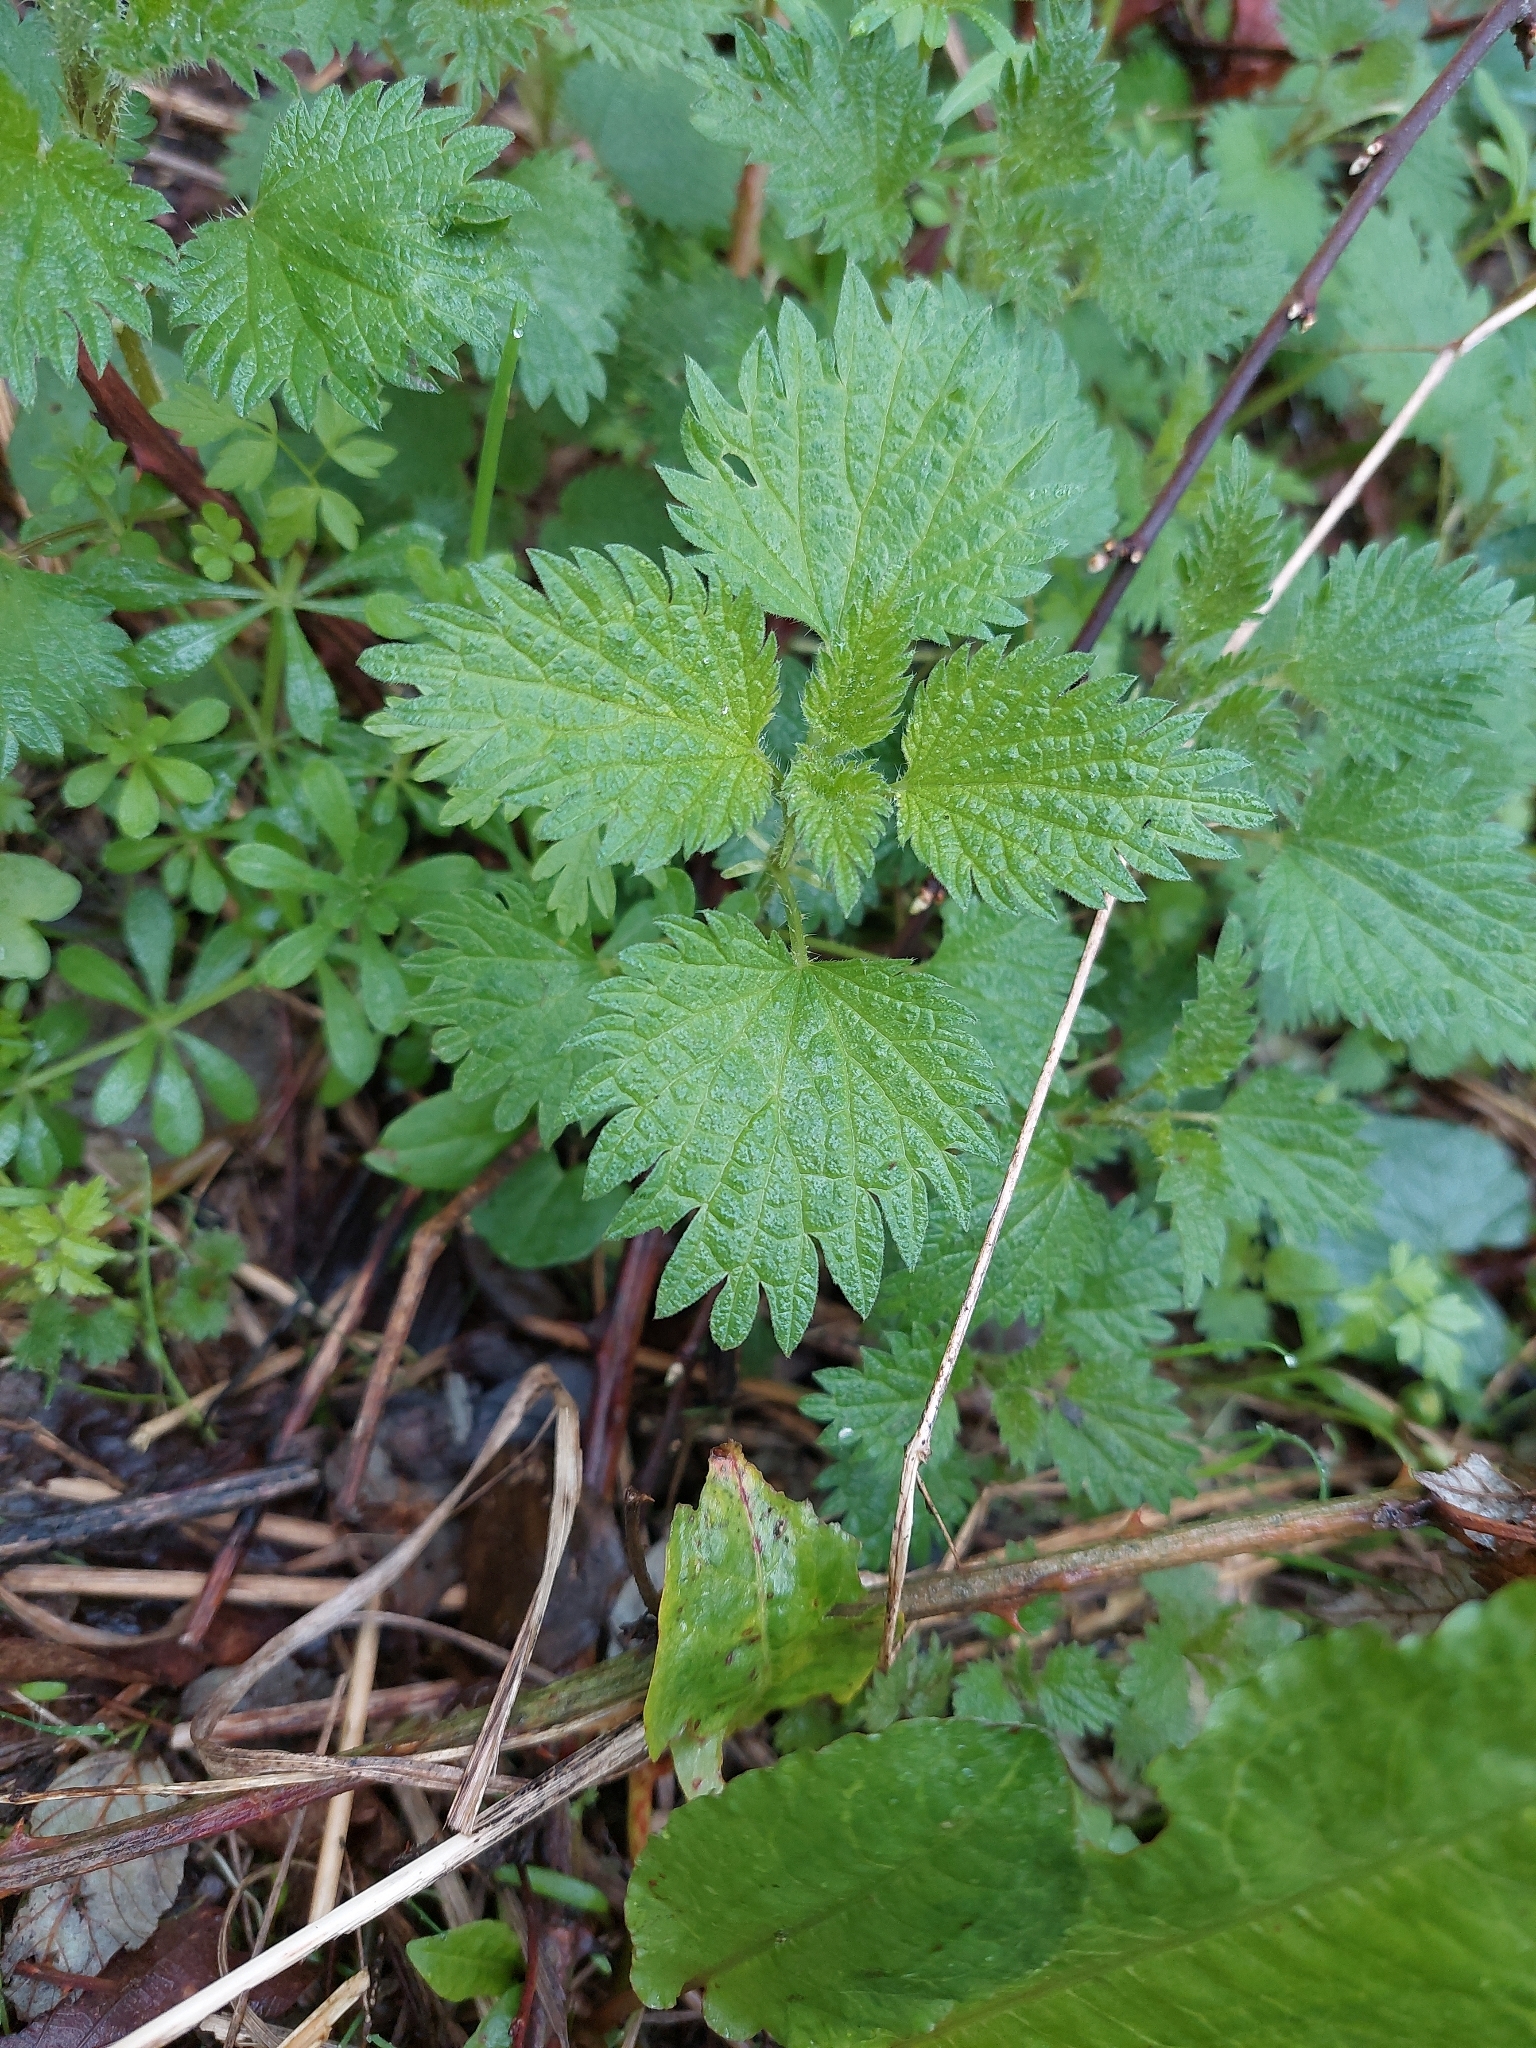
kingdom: Plantae
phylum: Tracheophyta
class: Magnoliopsida
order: Rosales
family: Urticaceae
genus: Urtica
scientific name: Urtica dioica
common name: Common nettle
